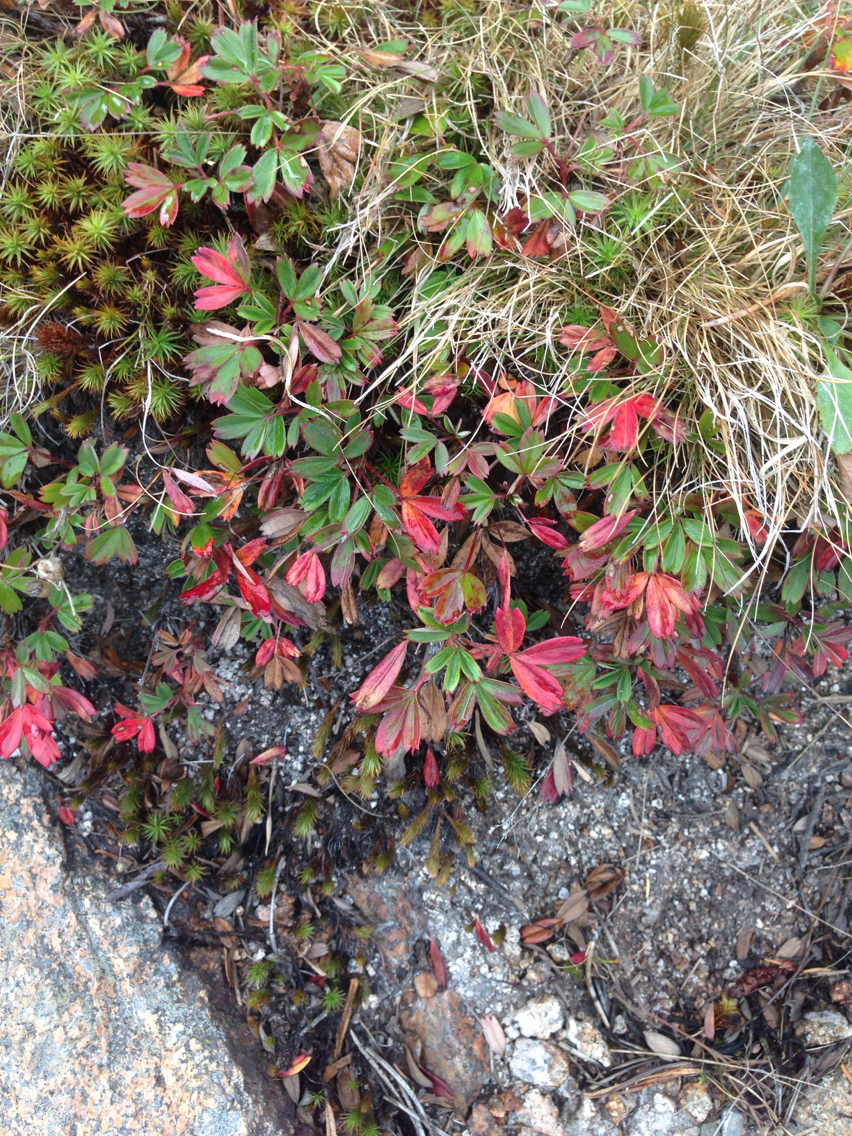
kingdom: Plantae
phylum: Tracheophyta
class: Magnoliopsida
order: Rosales
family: Rosaceae
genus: Sibbaldia
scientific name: Sibbaldia tridentata
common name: Three-toothed cinquefoil
